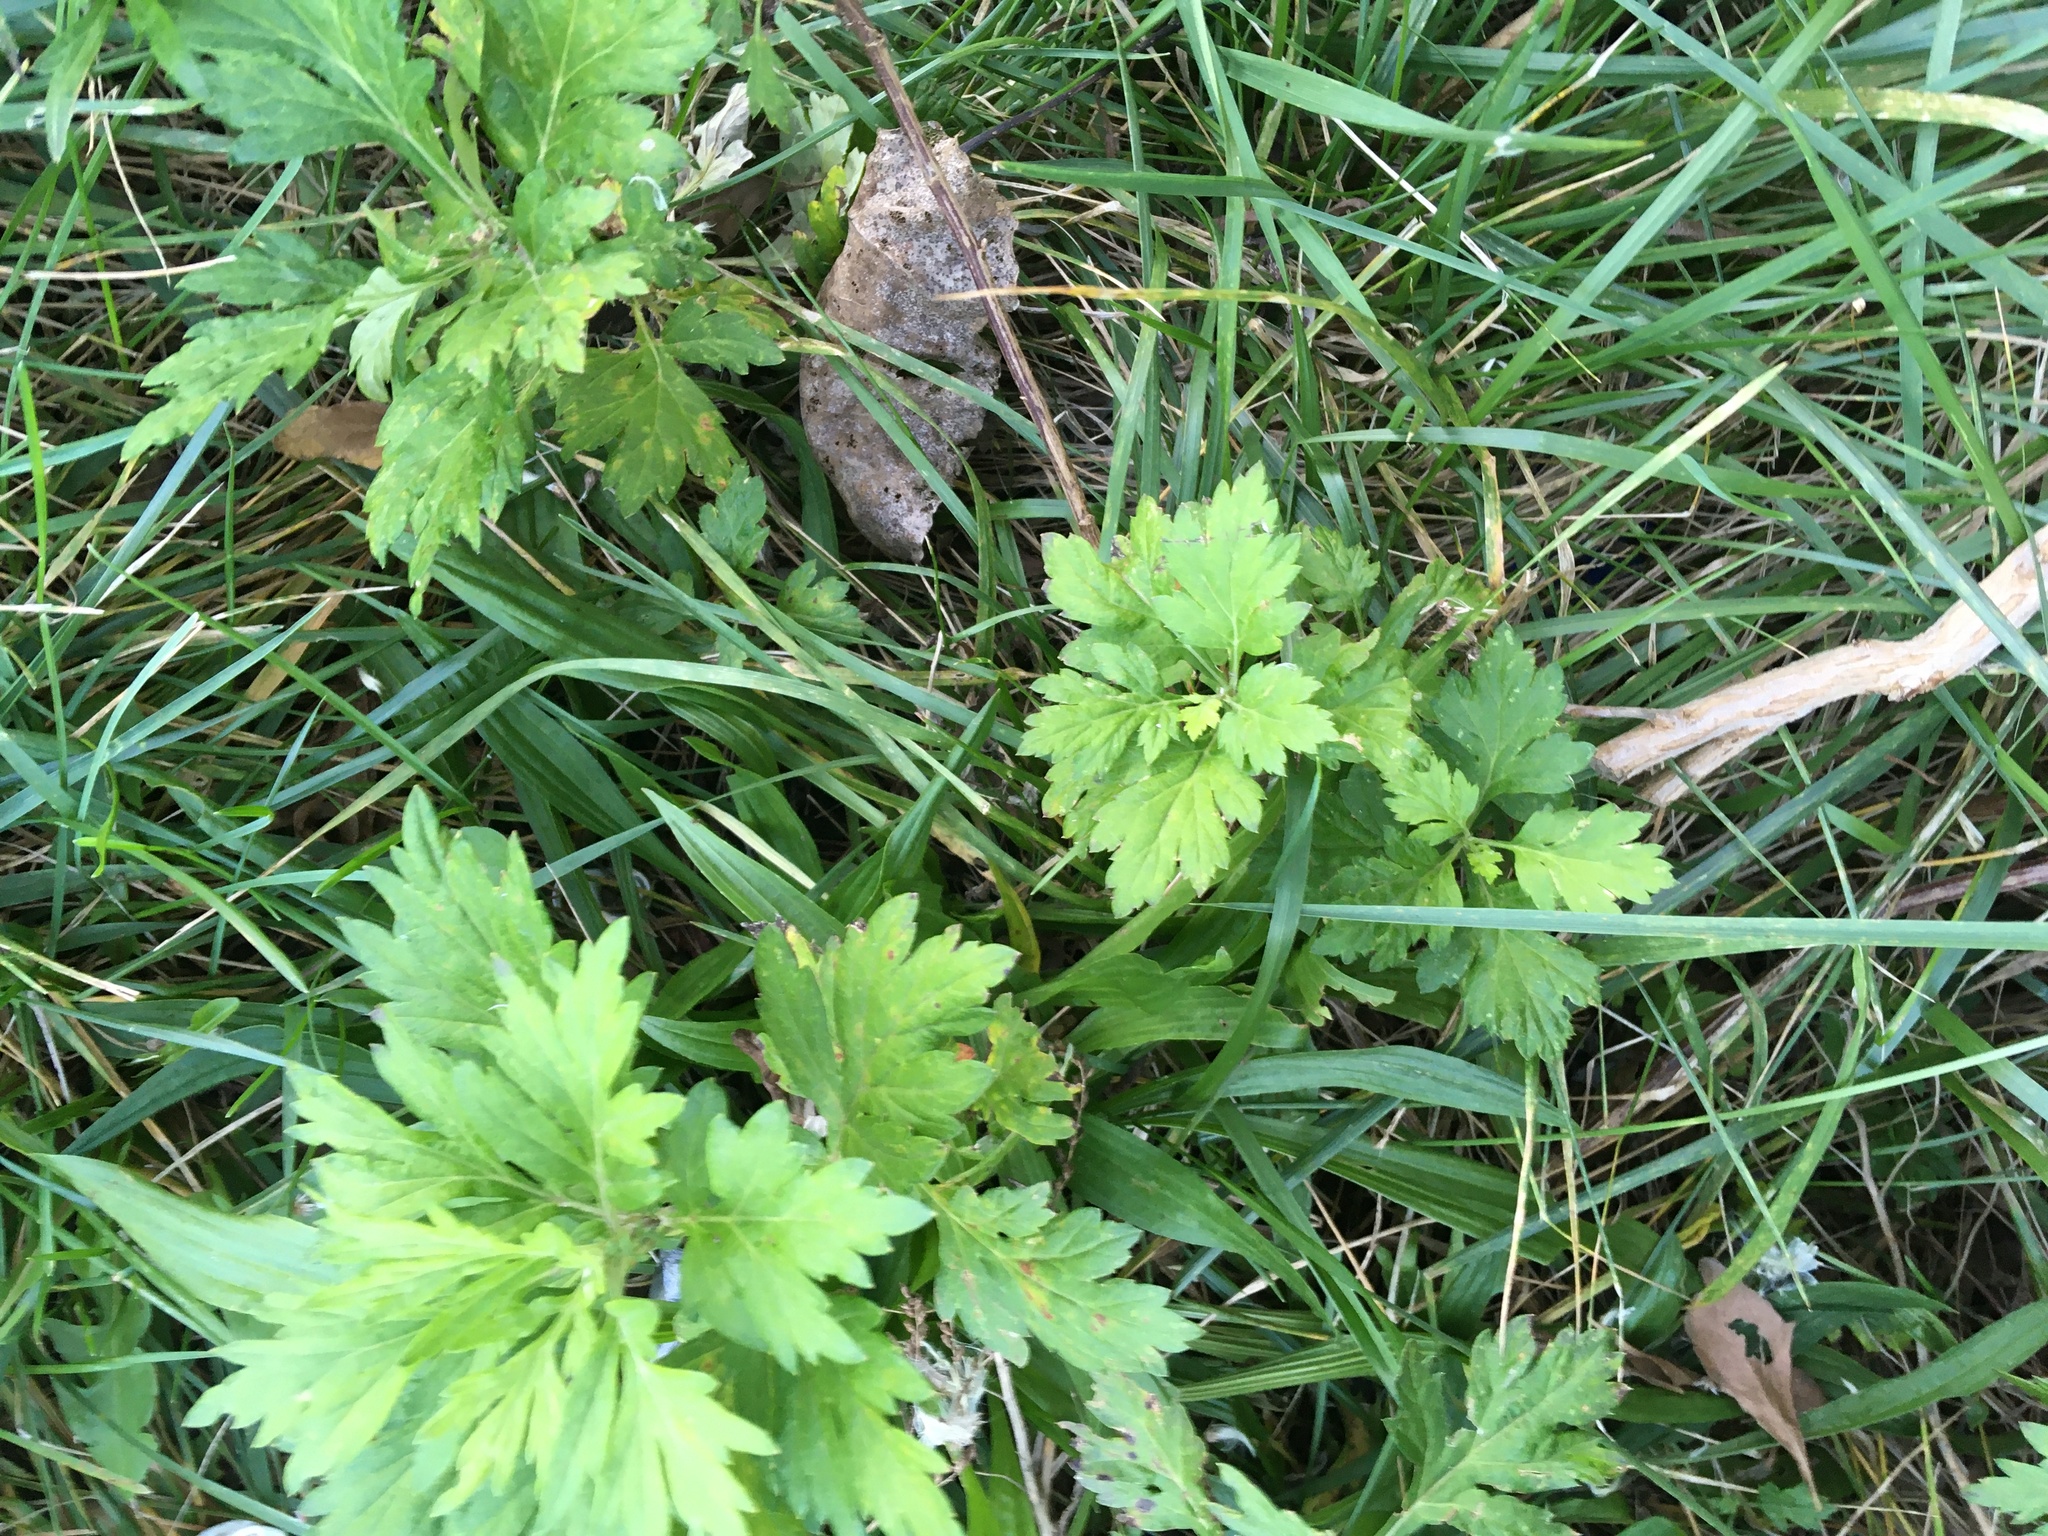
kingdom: Plantae
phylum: Tracheophyta
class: Magnoliopsida
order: Asterales
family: Asteraceae
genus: Artemisia
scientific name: Artemisia vulgaris
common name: Mugwort
